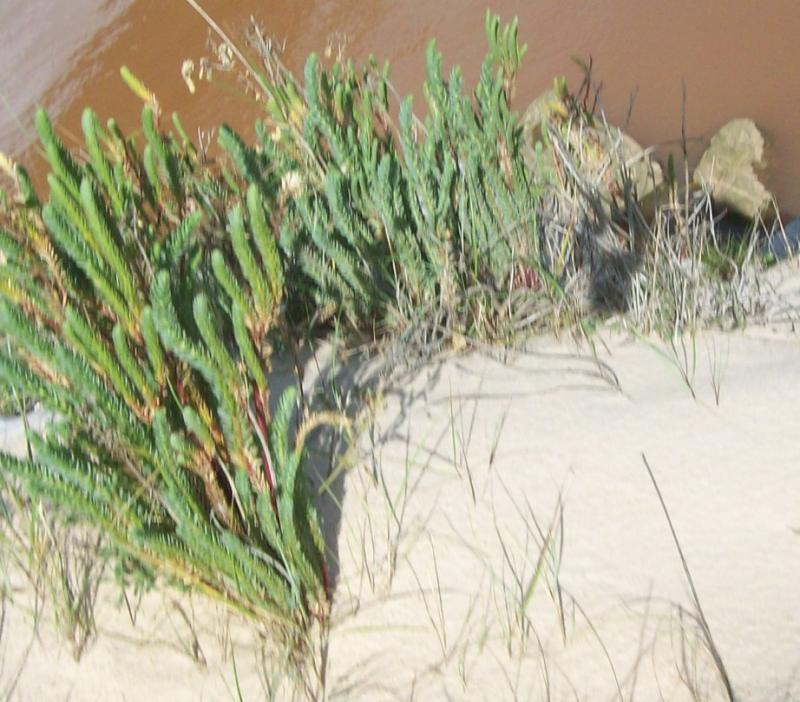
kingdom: Plantae
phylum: Tracheophyta
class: Magnoliopsida
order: Malpighiales
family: Euphorbiaceae
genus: Euphorbia
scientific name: Euphorbia paralias
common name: Sea spurge
